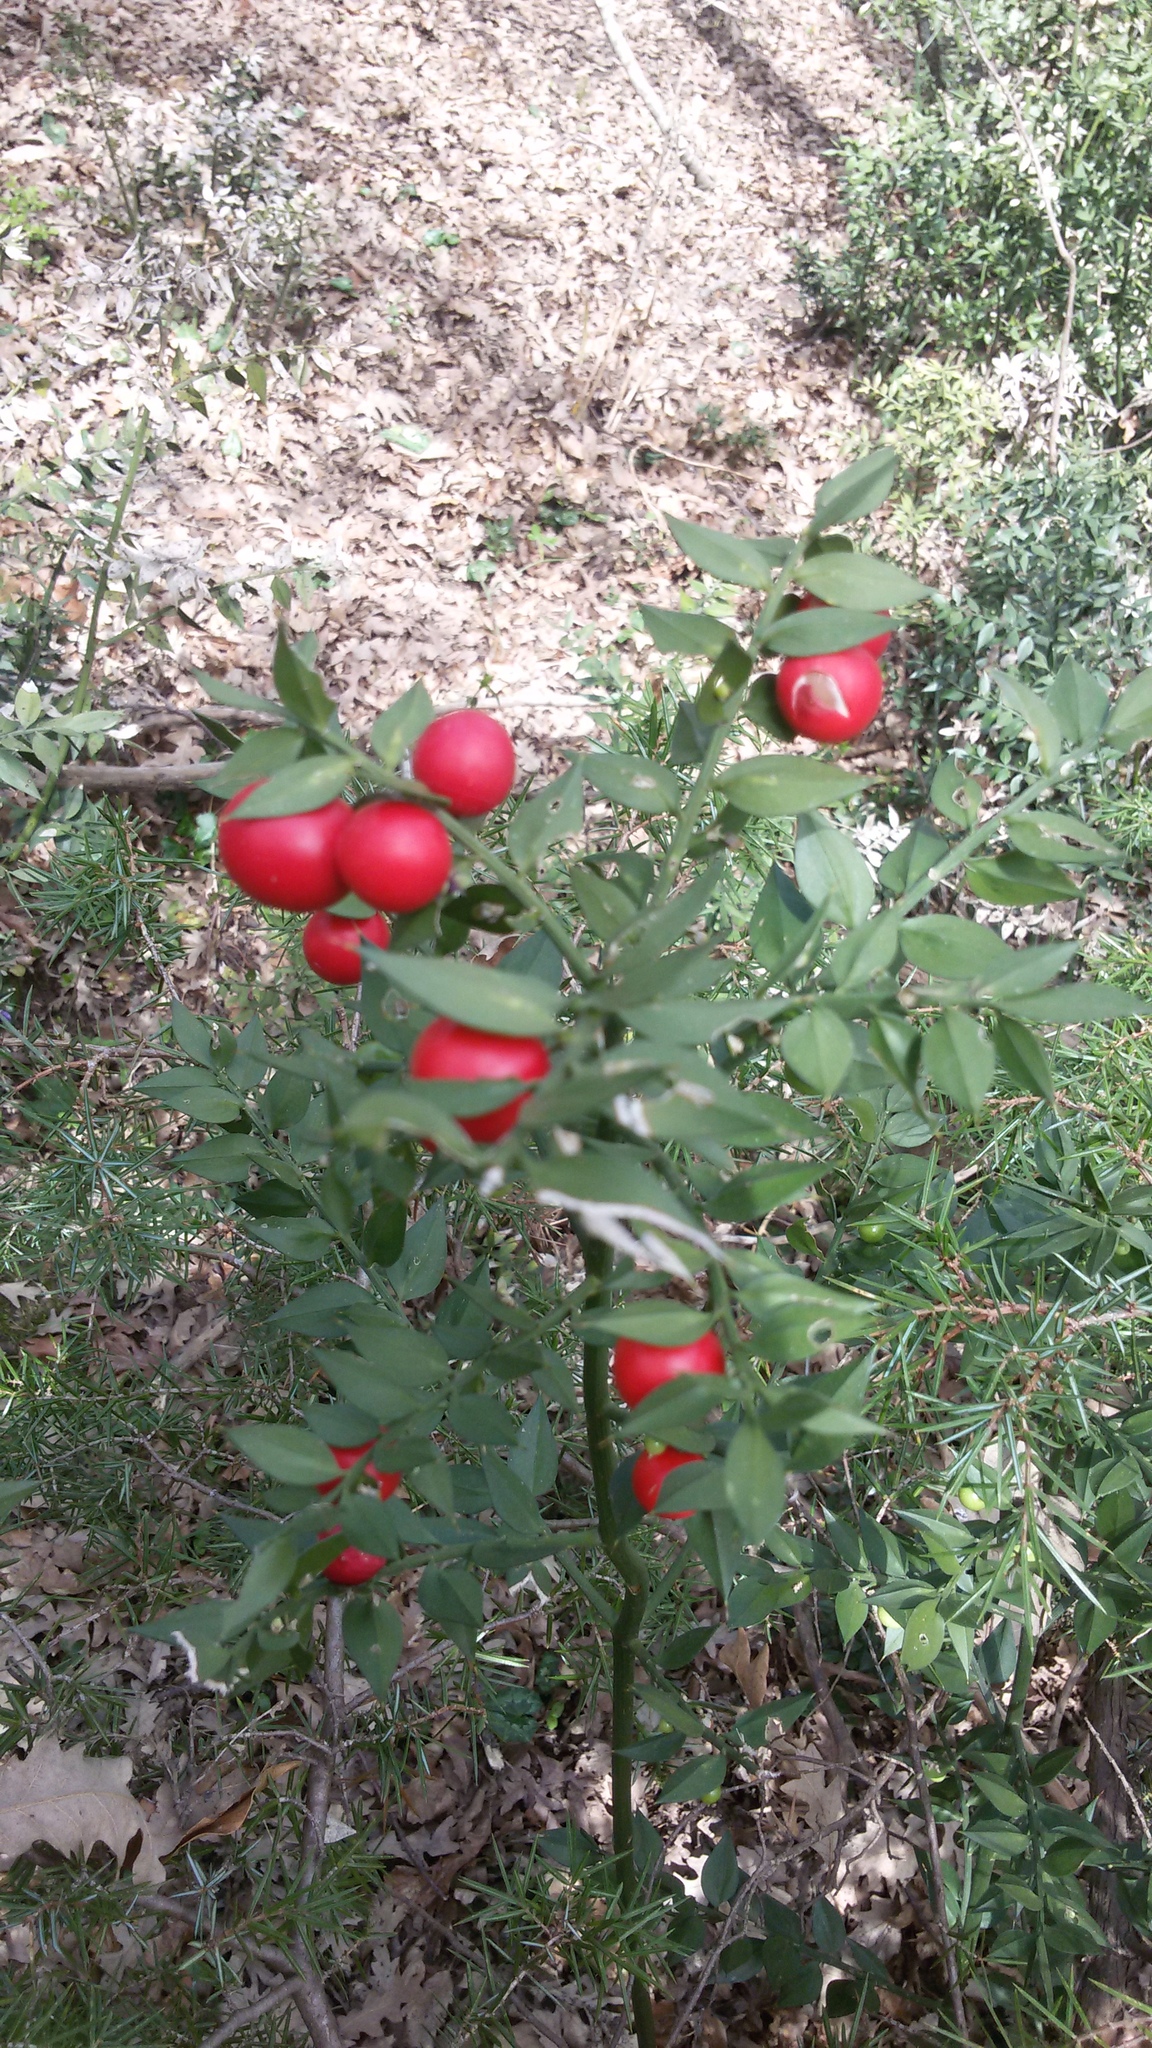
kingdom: Plantae
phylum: Tracheophyta
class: Liliopsida
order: Asparagales
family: Asparagaceae
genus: Ruscus
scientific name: Ruscus aculeatus
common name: Butcher's-broom
